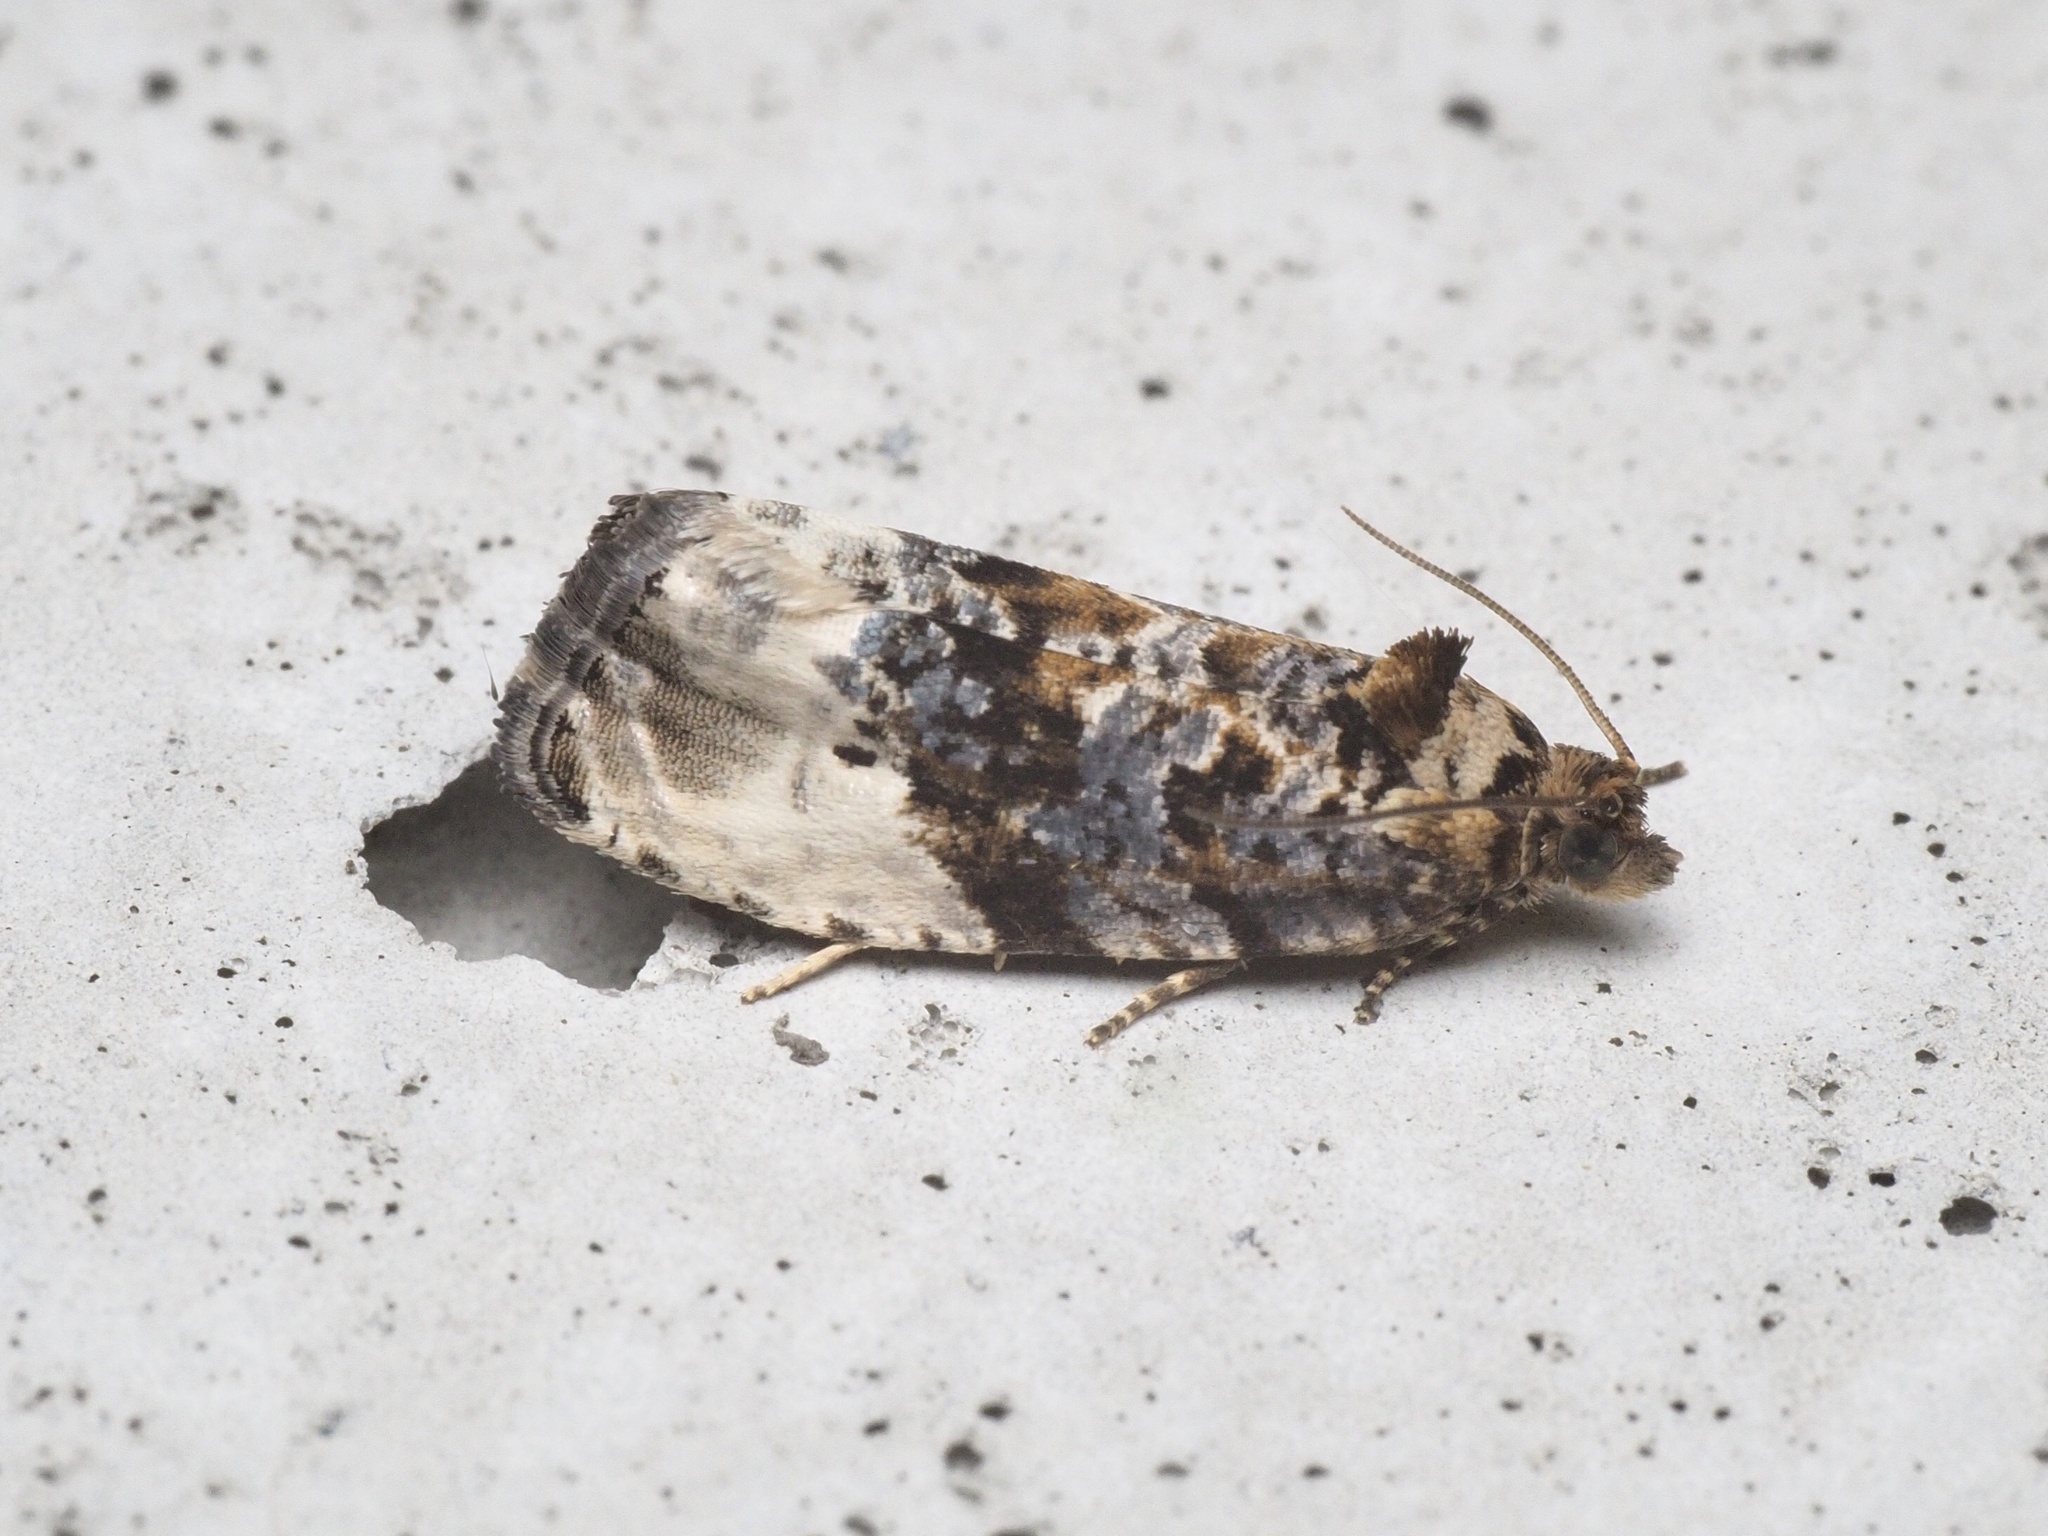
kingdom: Animalia
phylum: Arthropoda
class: Insecta
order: Lepidoptera
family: Tortricidae
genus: Hedya
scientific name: Hedya nubiferana
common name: Marbled orchard tortrix
